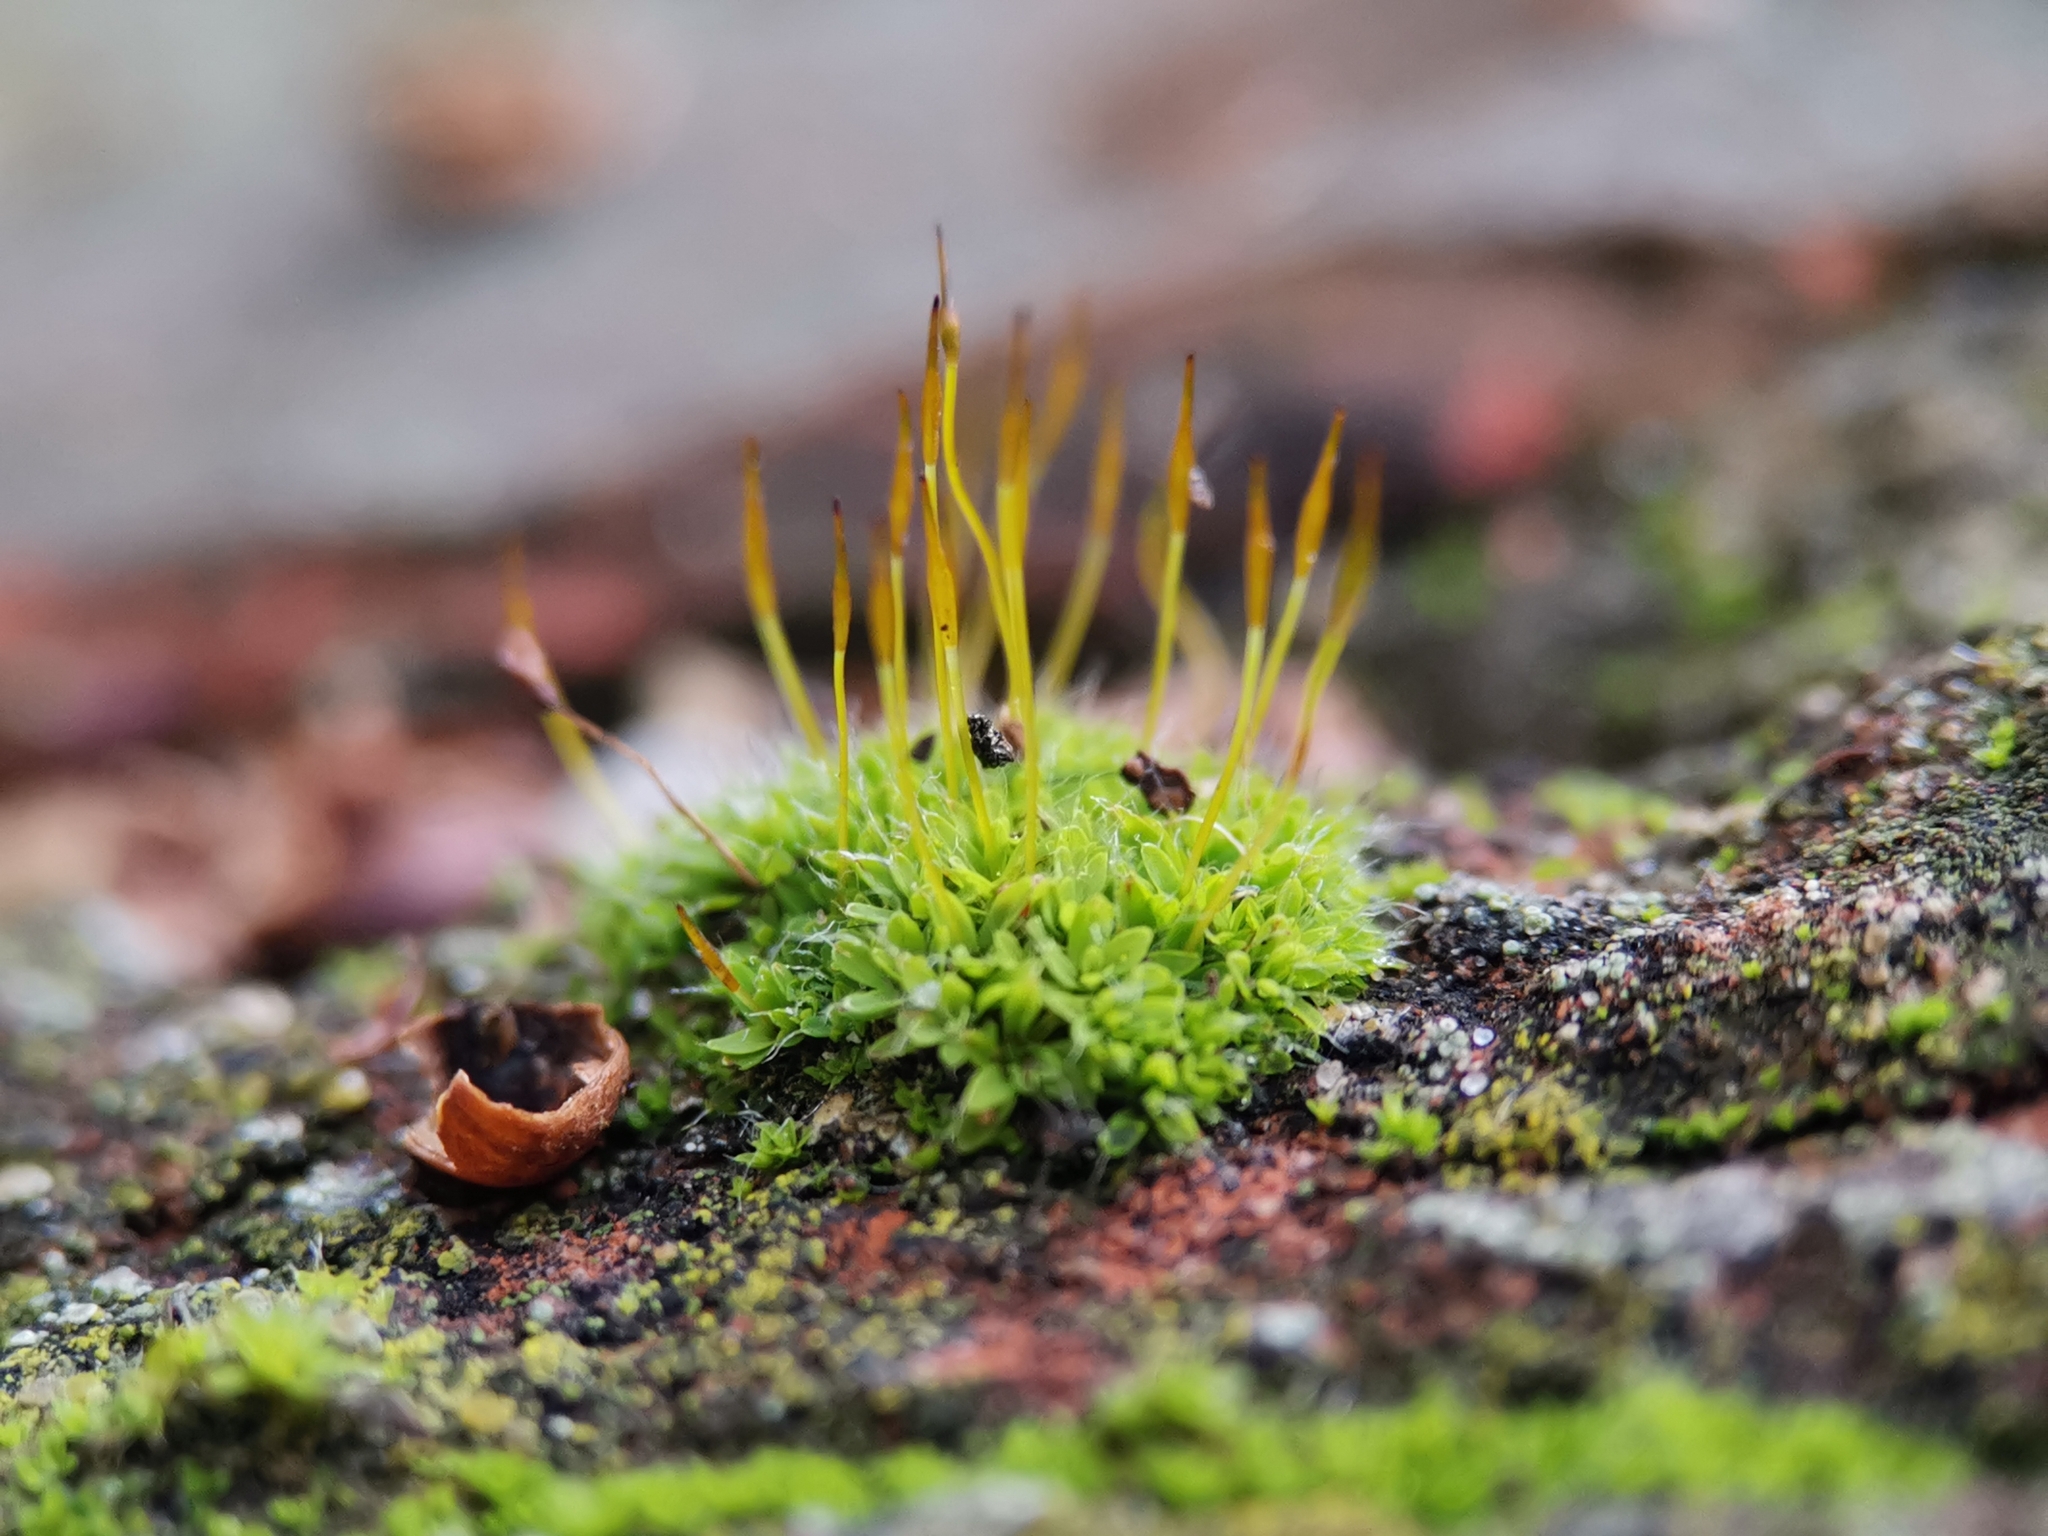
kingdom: Plantae
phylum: Bryophyta
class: Bryopsida
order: Pottiales
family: Pottiaceae
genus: Tortula
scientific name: Tortula muralis
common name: Wall screw-moss
